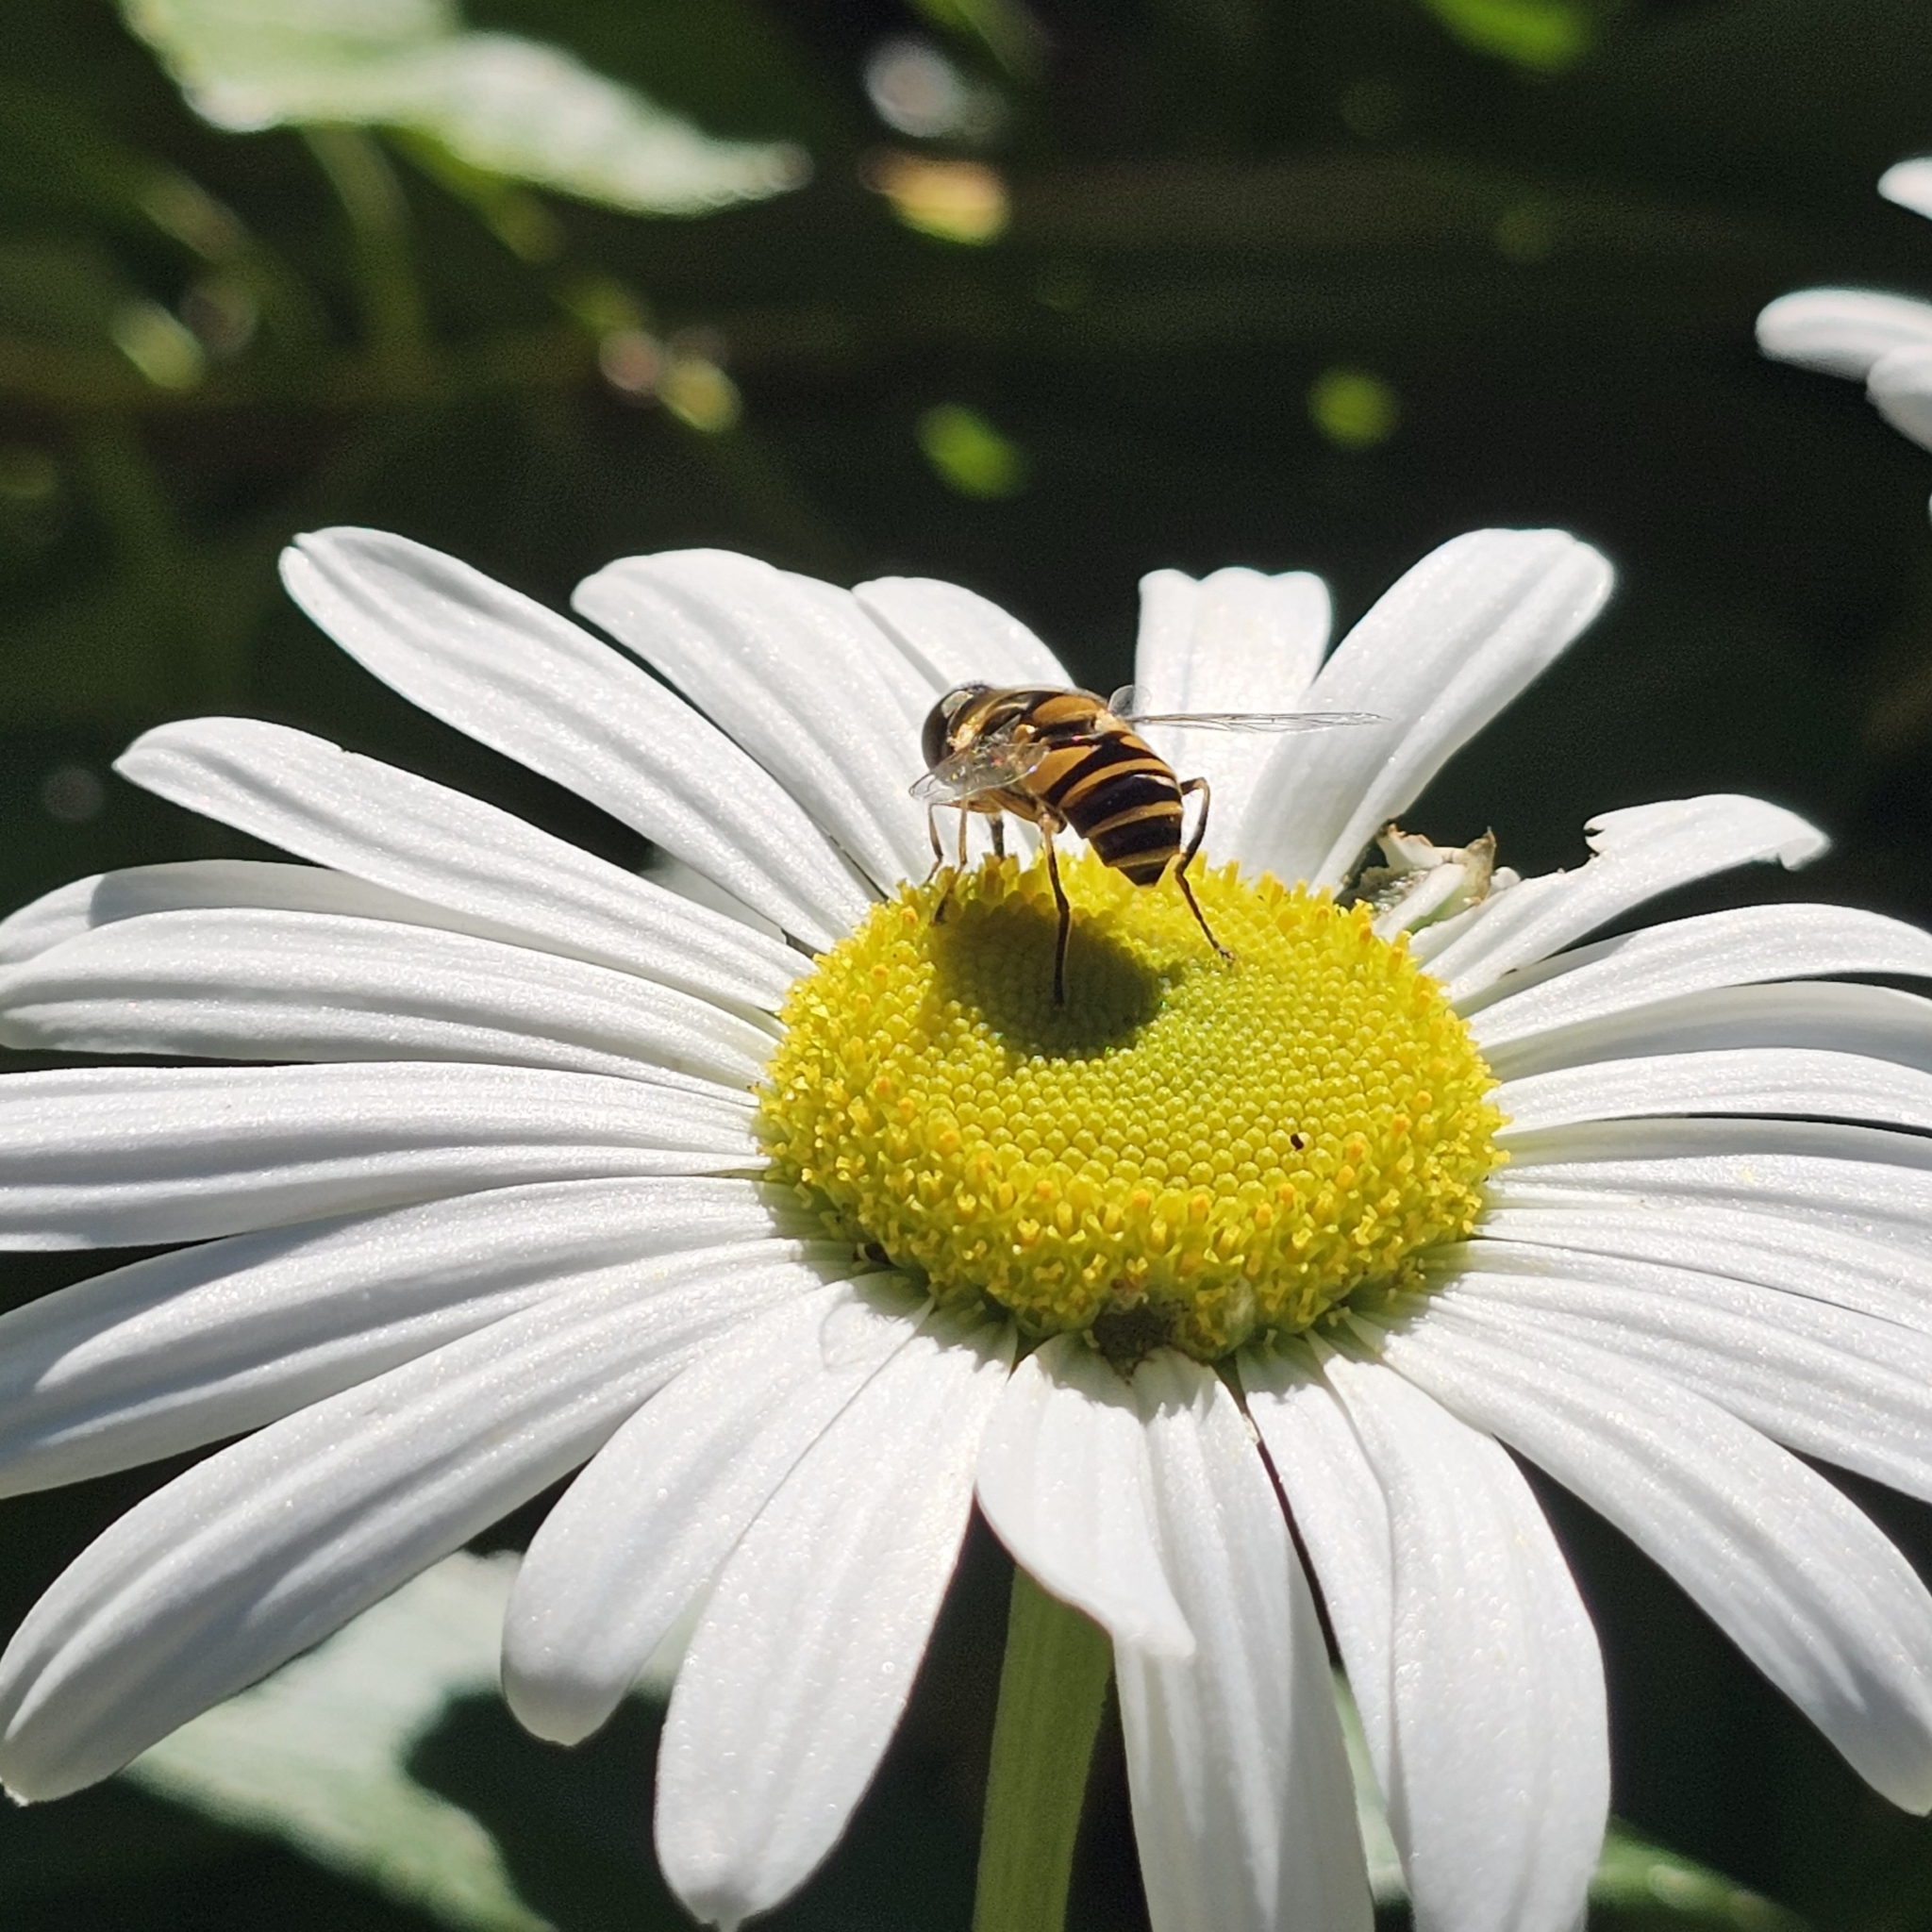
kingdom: Animalia
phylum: Arthropoda
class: Insecta
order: Diptera
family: Syrphidae
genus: Eristalis
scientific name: Eristalis transversa
